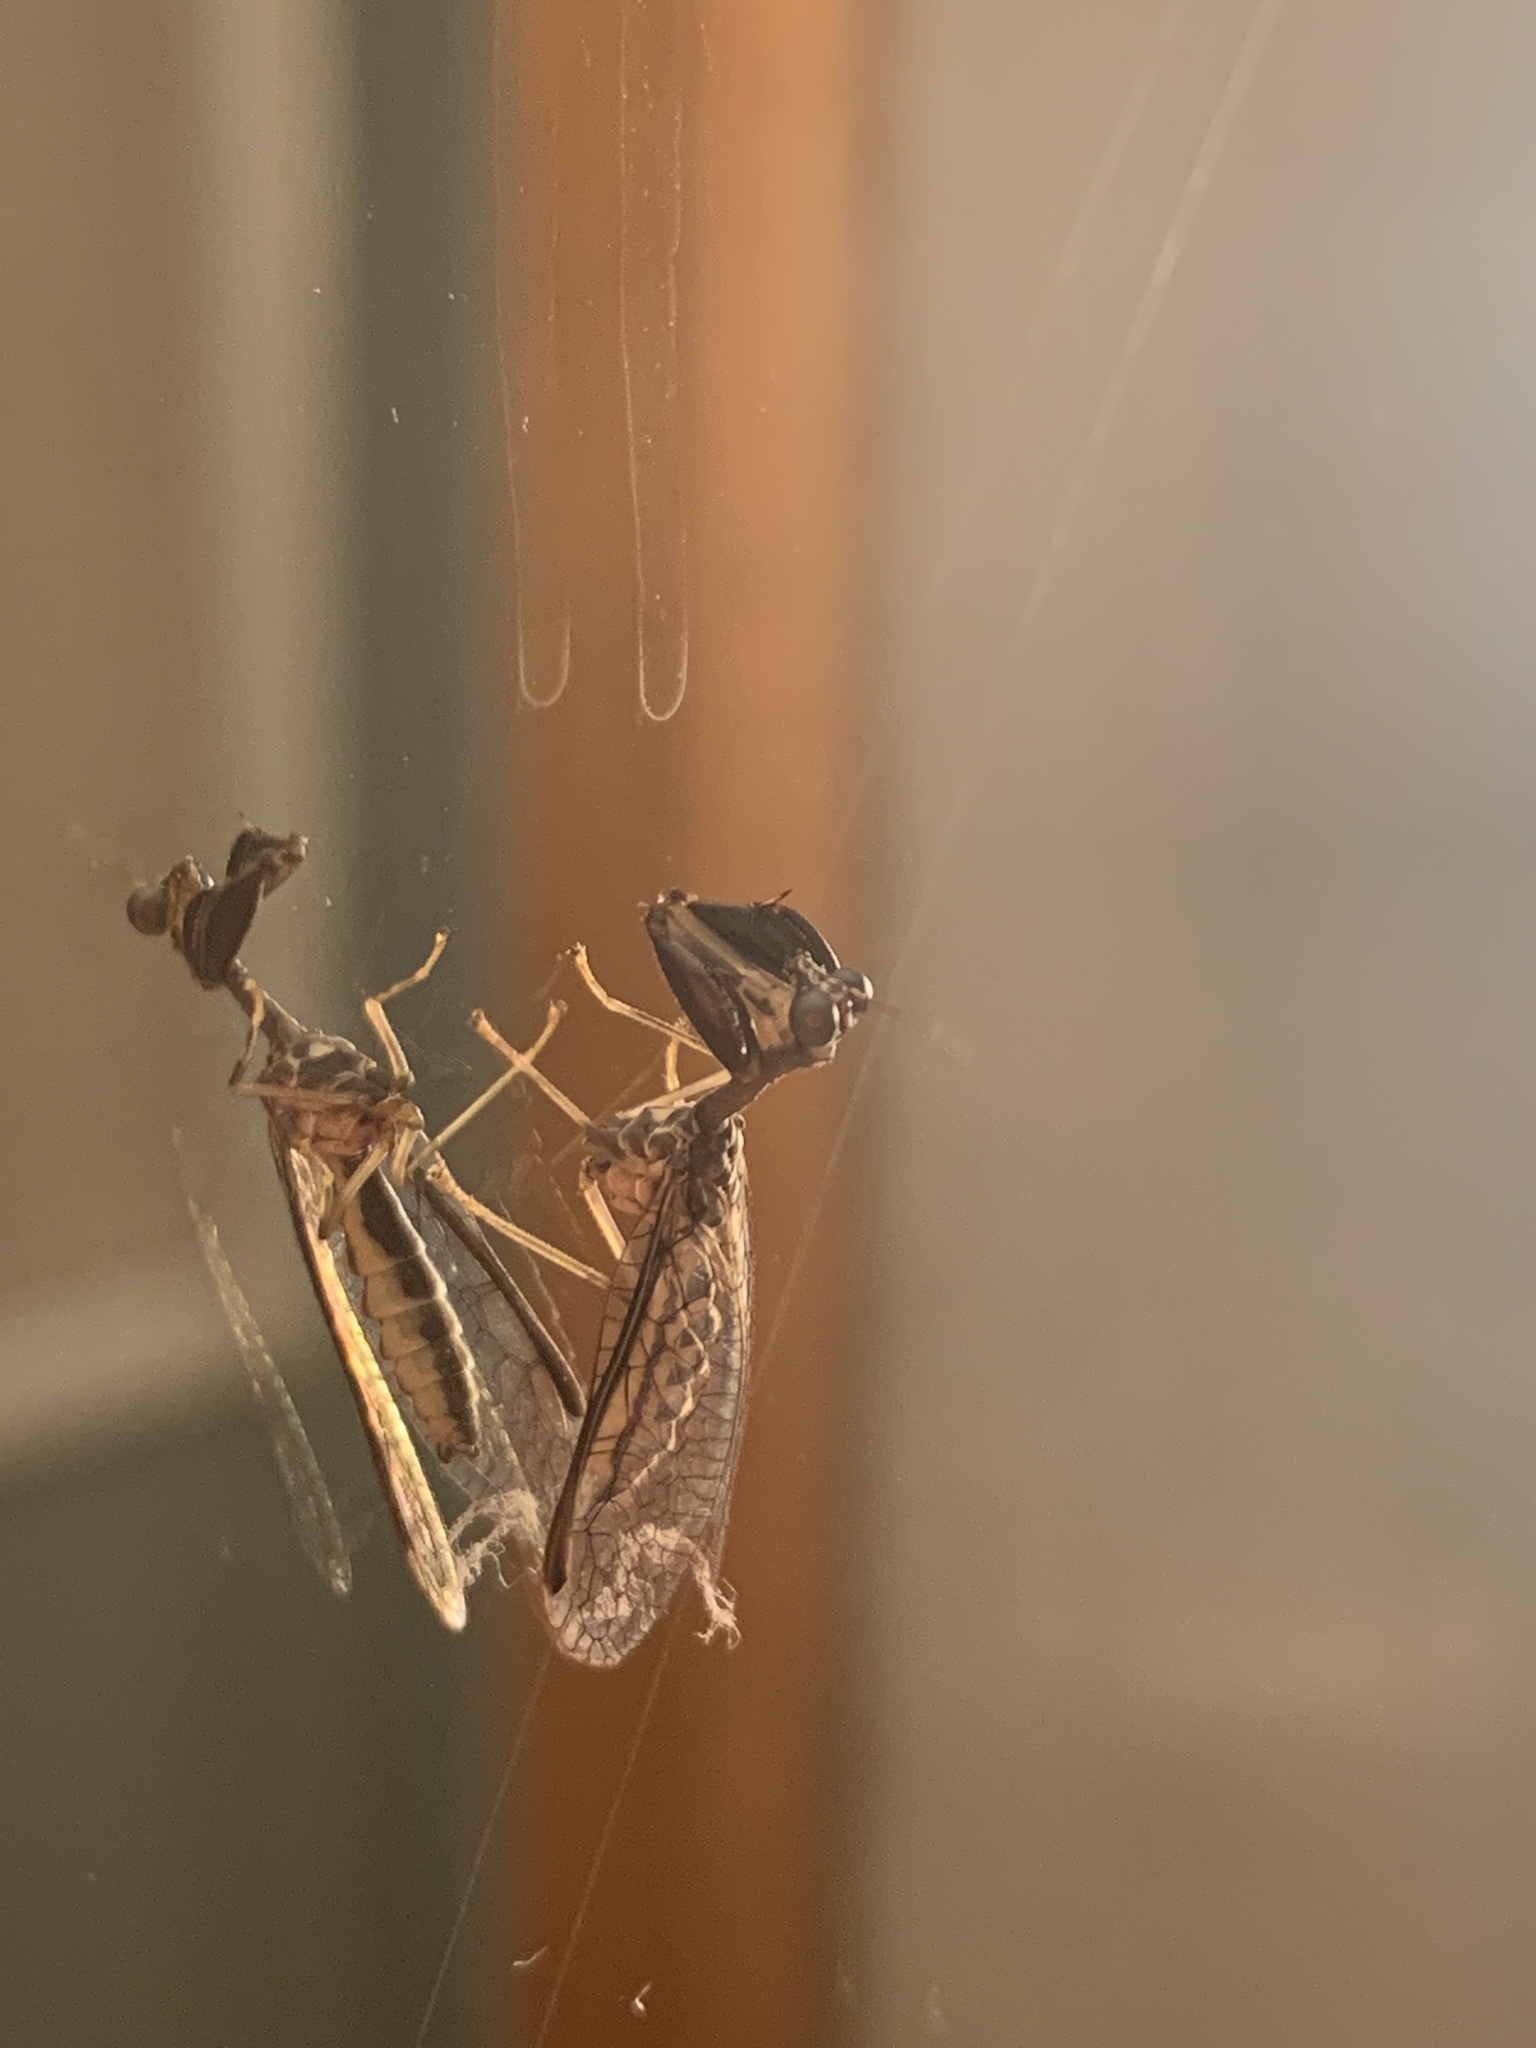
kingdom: Animalia
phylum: Arthropoda
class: Insecta
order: Neuroptera
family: Mantispidae
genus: Dicromantispa
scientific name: Dicromantispa sayi
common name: Say's mantidfly
